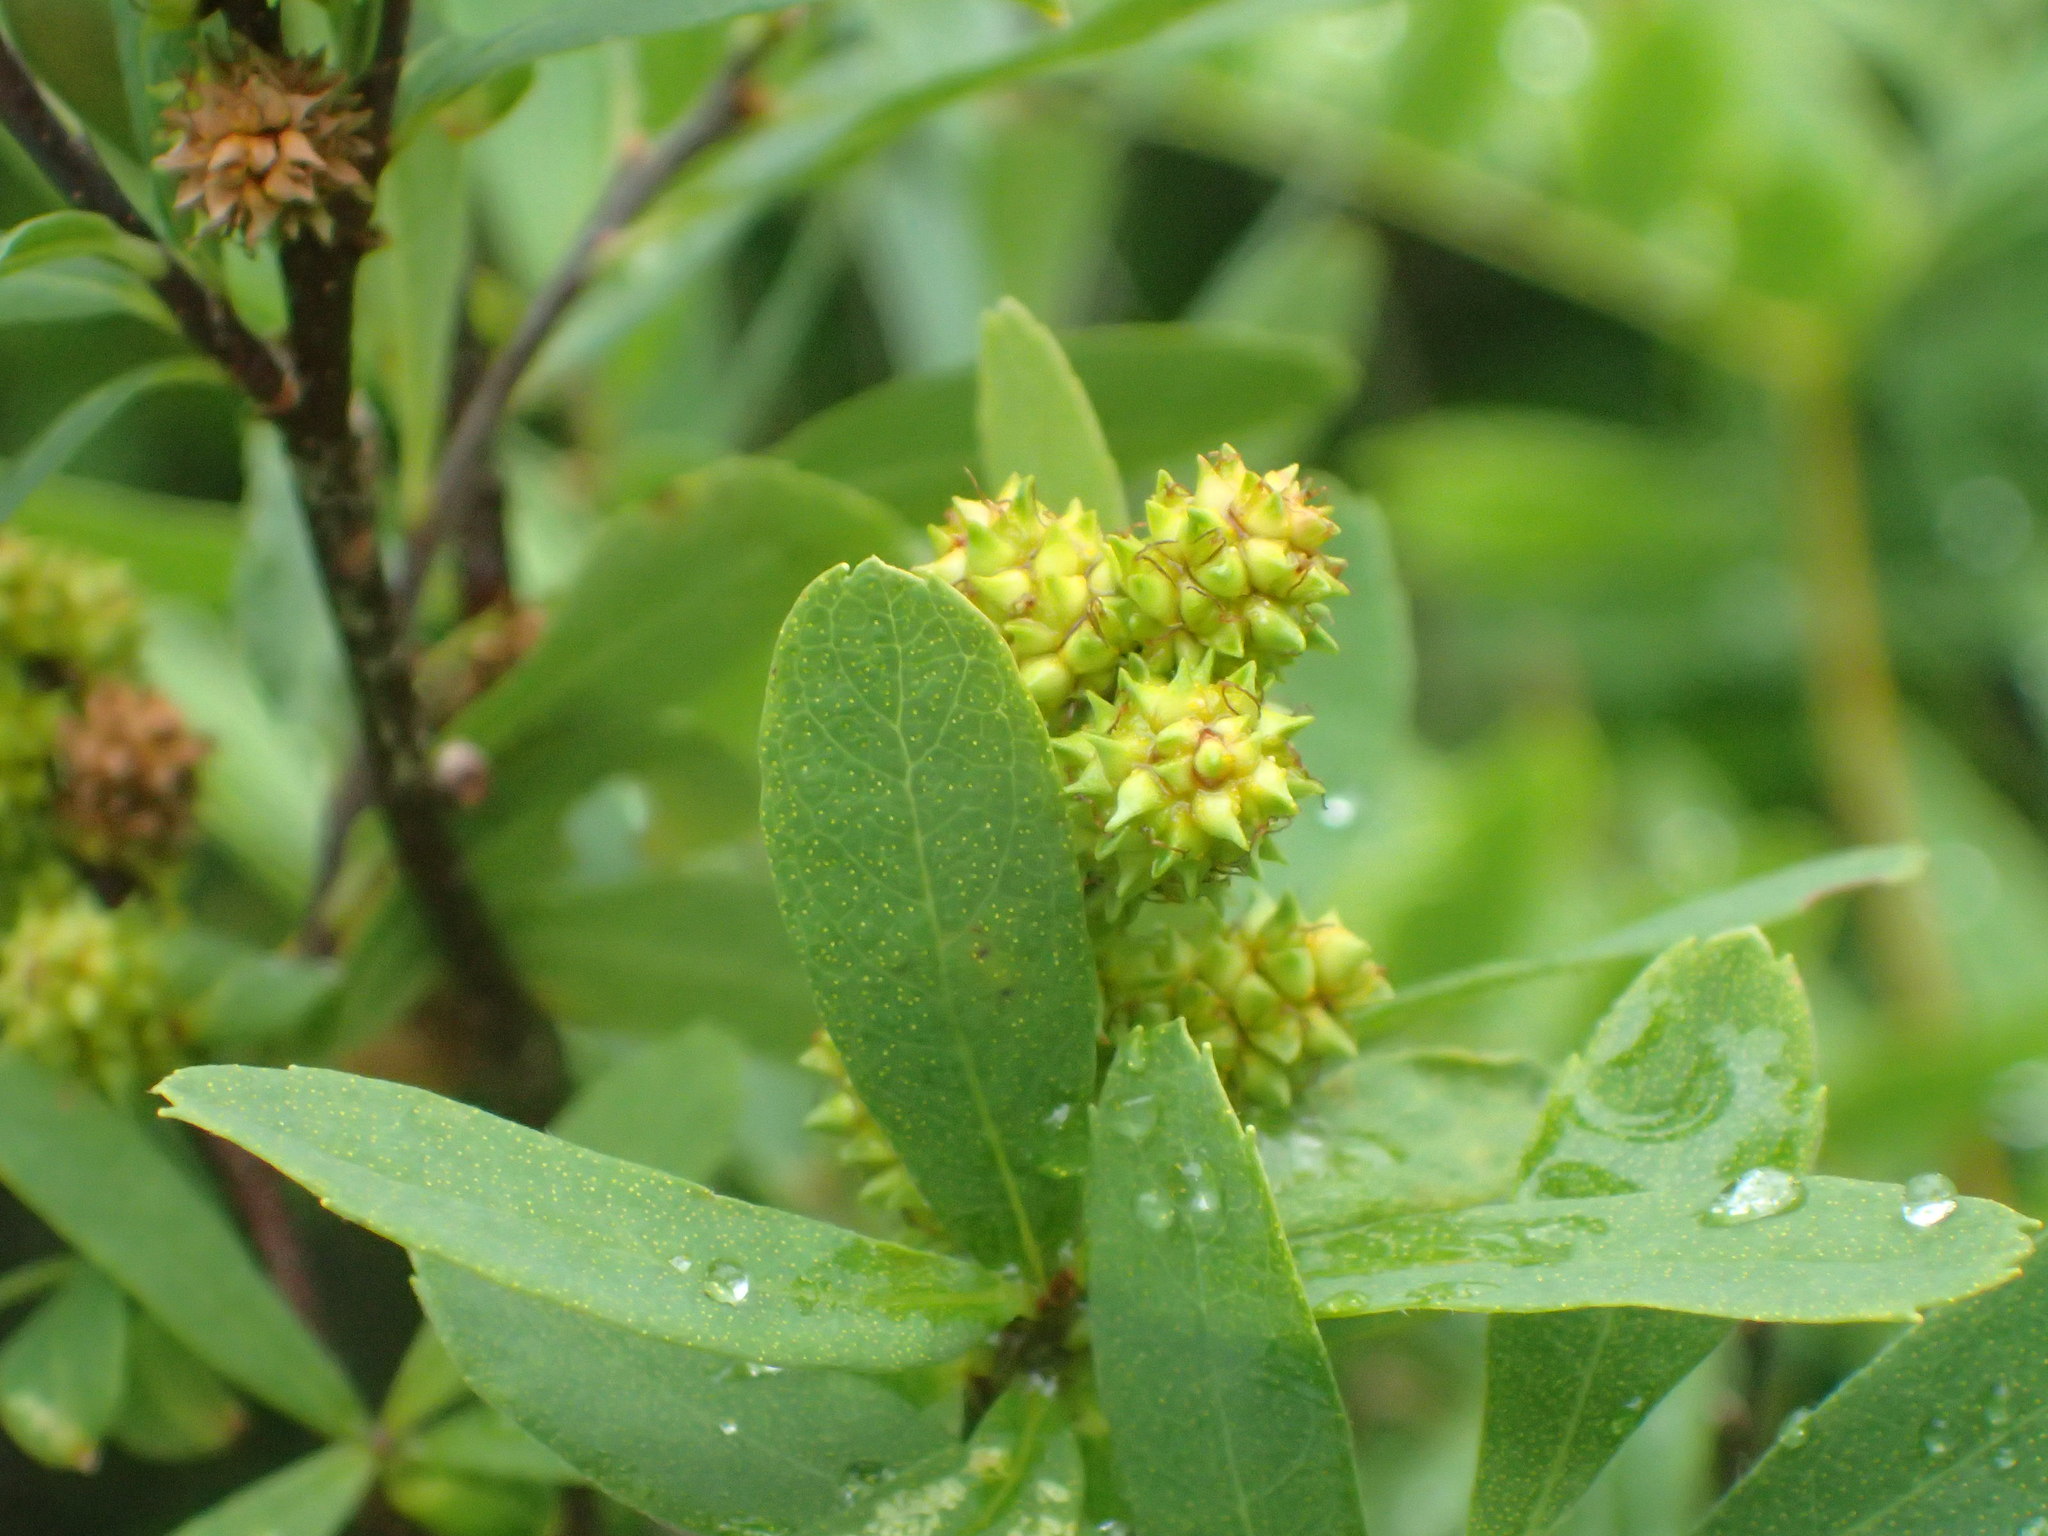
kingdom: Plantae
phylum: Tracheophyta
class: Magnoliopsida
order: Fagales
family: Myricaceae
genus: Myrica
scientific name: Myrica gale
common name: Sweet gale
